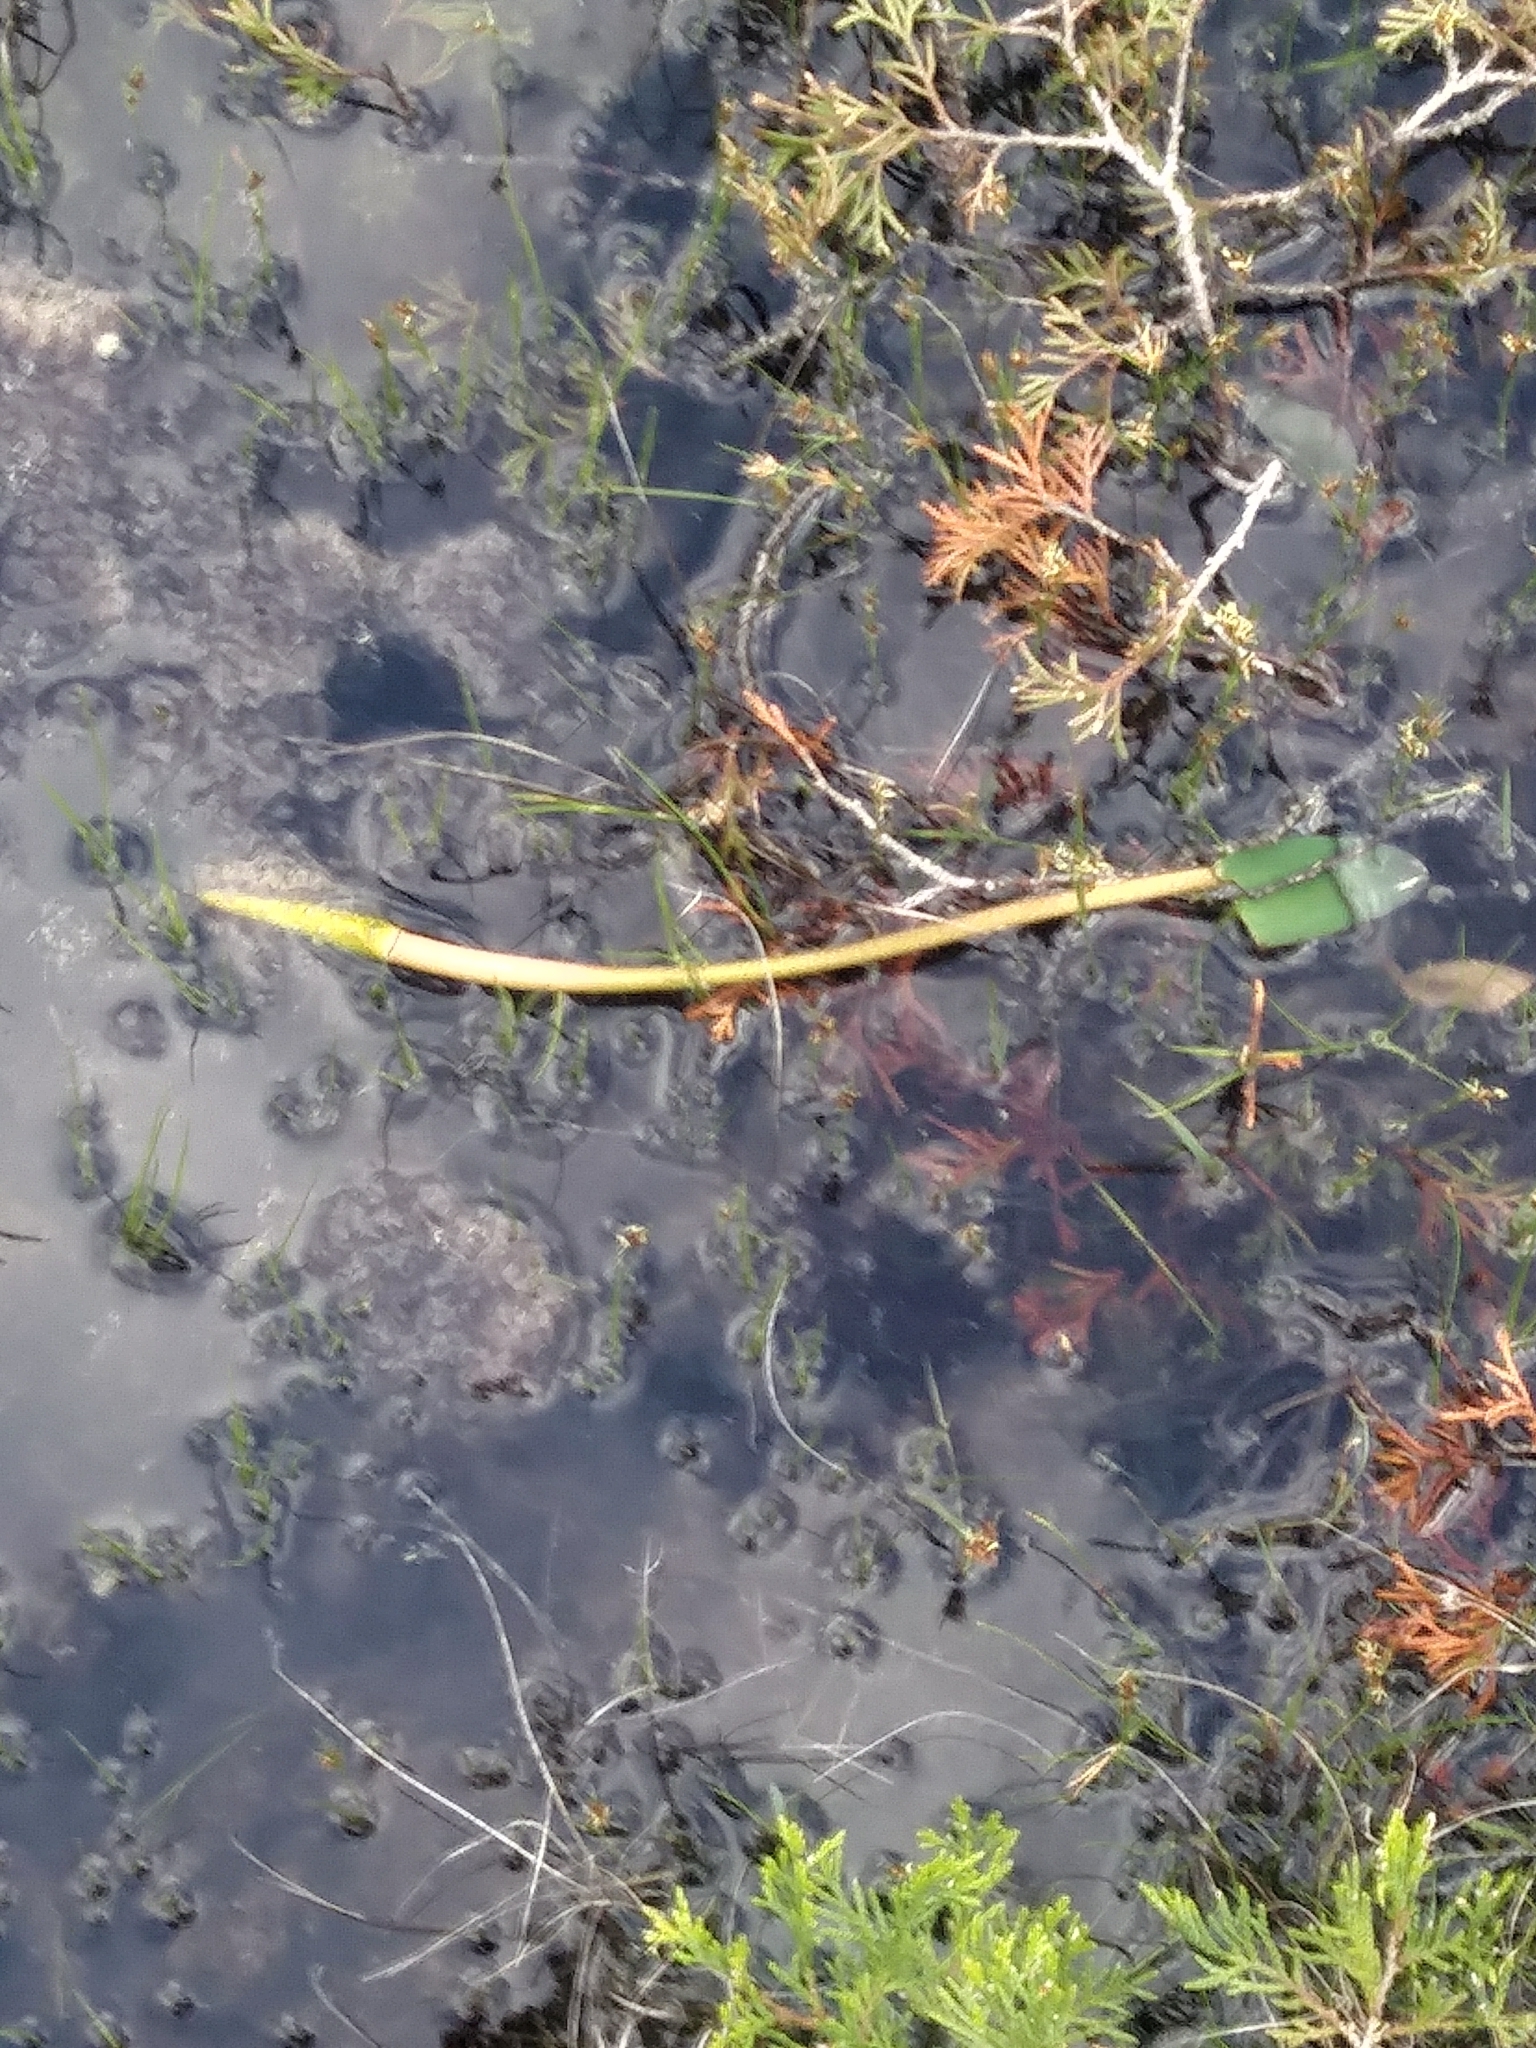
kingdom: Plantae
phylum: Tracheophyta
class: Liliopsida
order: Alismatales
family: Araceae
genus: Orontium
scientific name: Orontium aquaticum
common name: Golden-club
